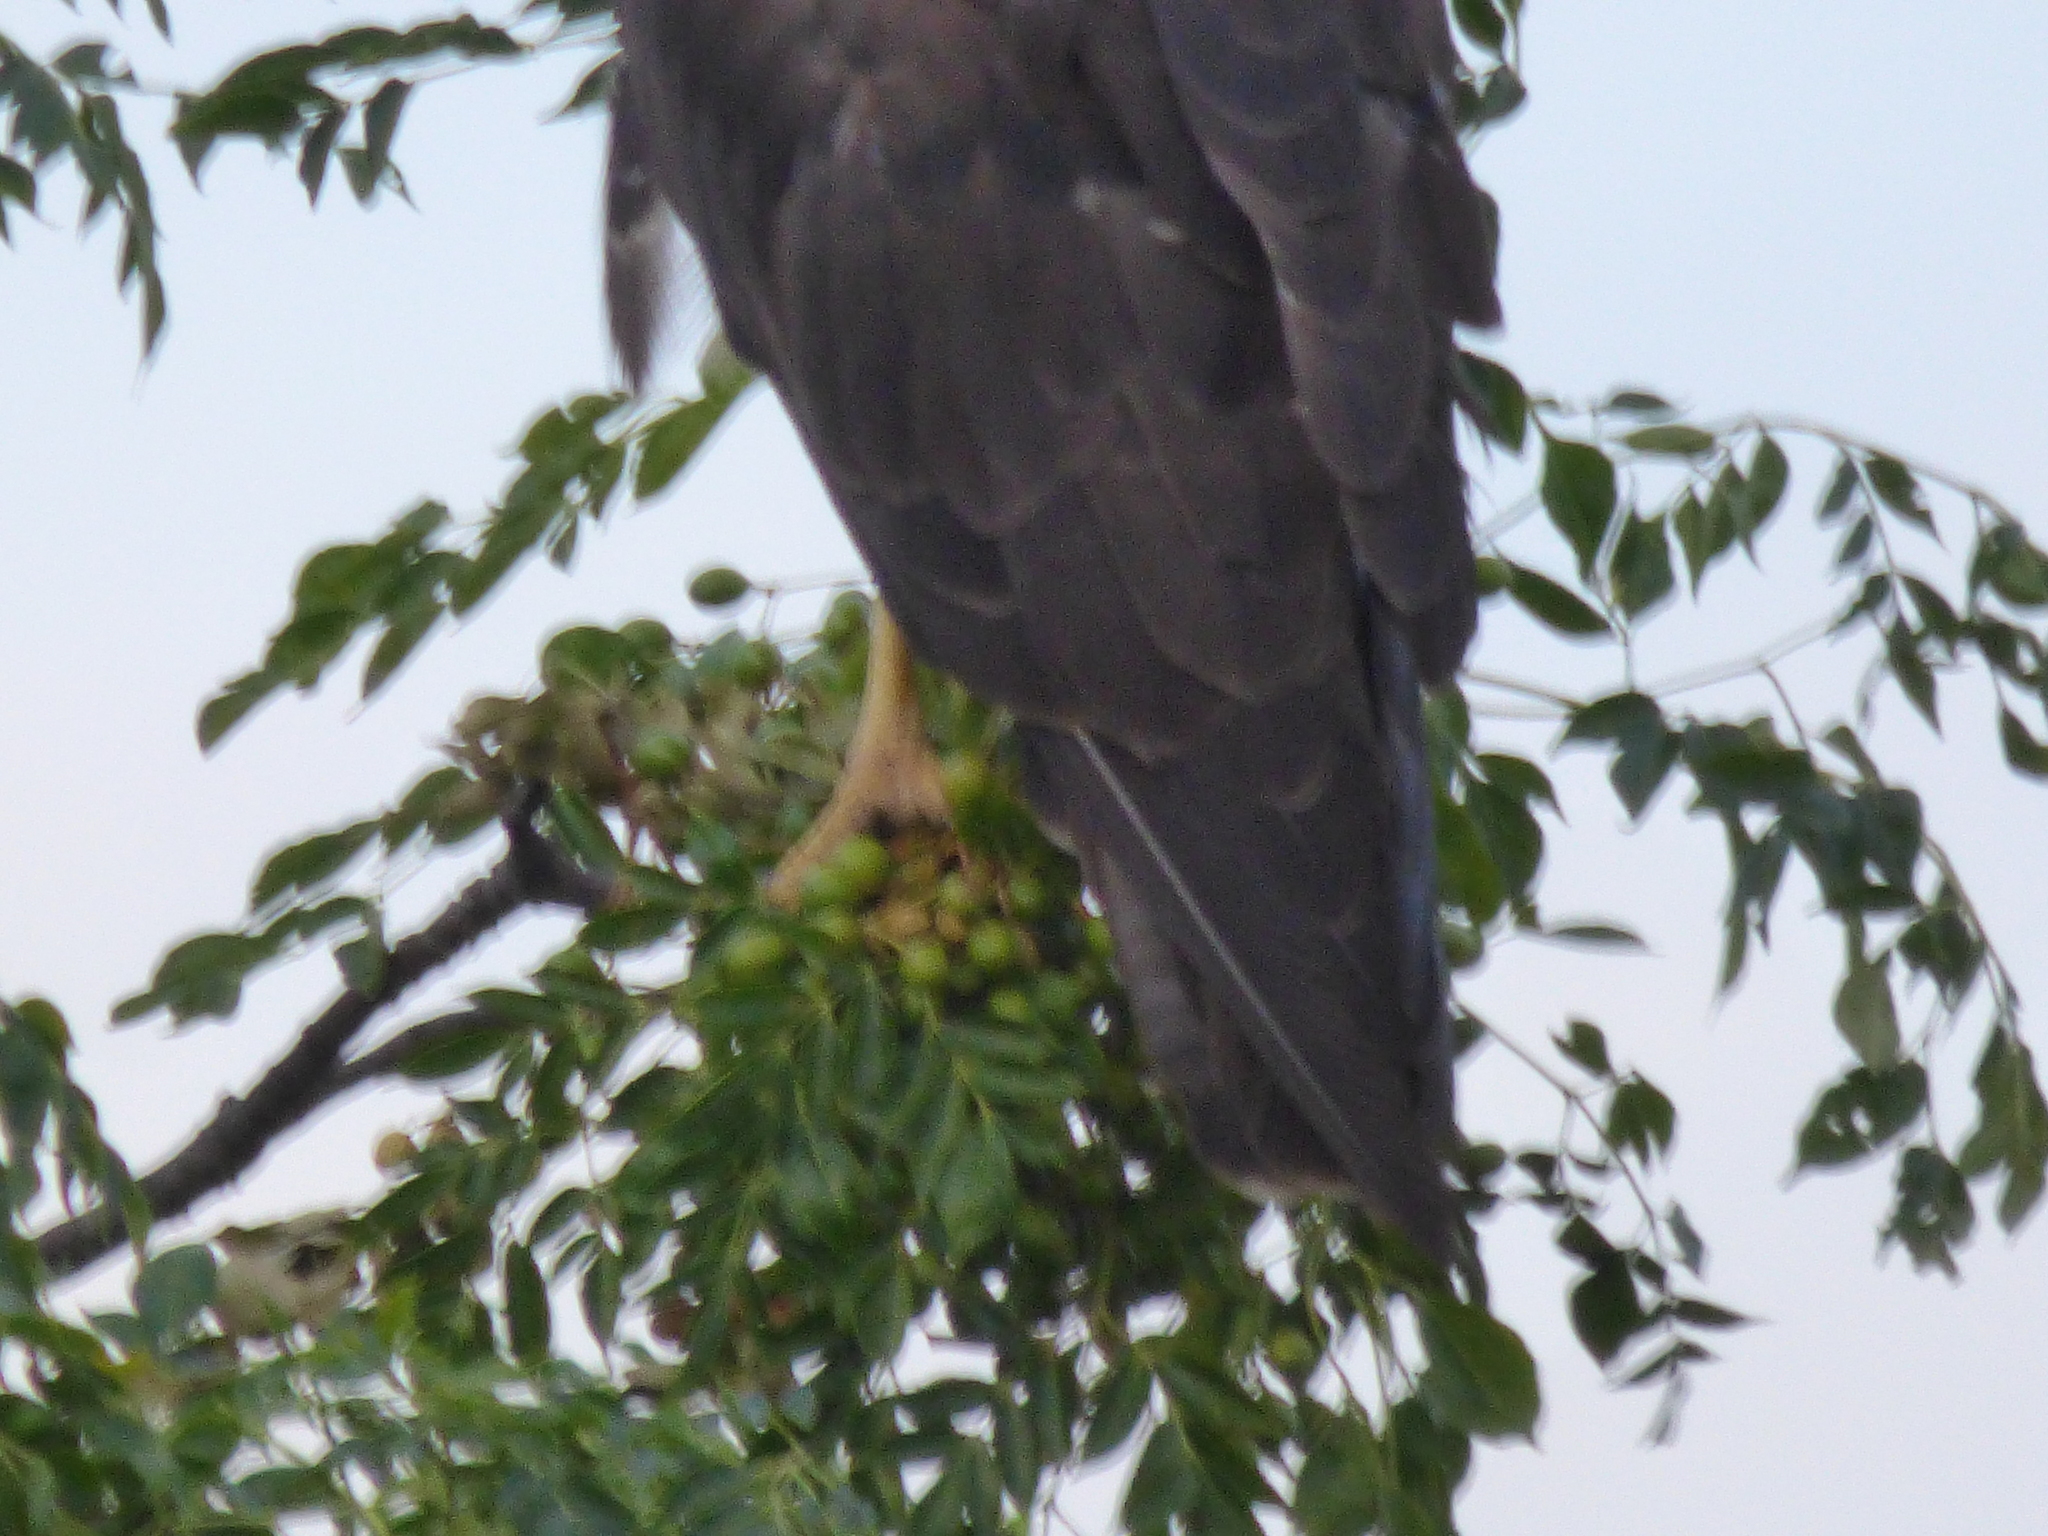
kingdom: Animalia
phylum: Chordata
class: Aves
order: Accipitriformes
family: Accipitridae
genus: Buteo
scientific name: Buteo albicaudatus
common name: White-tailed hawk
